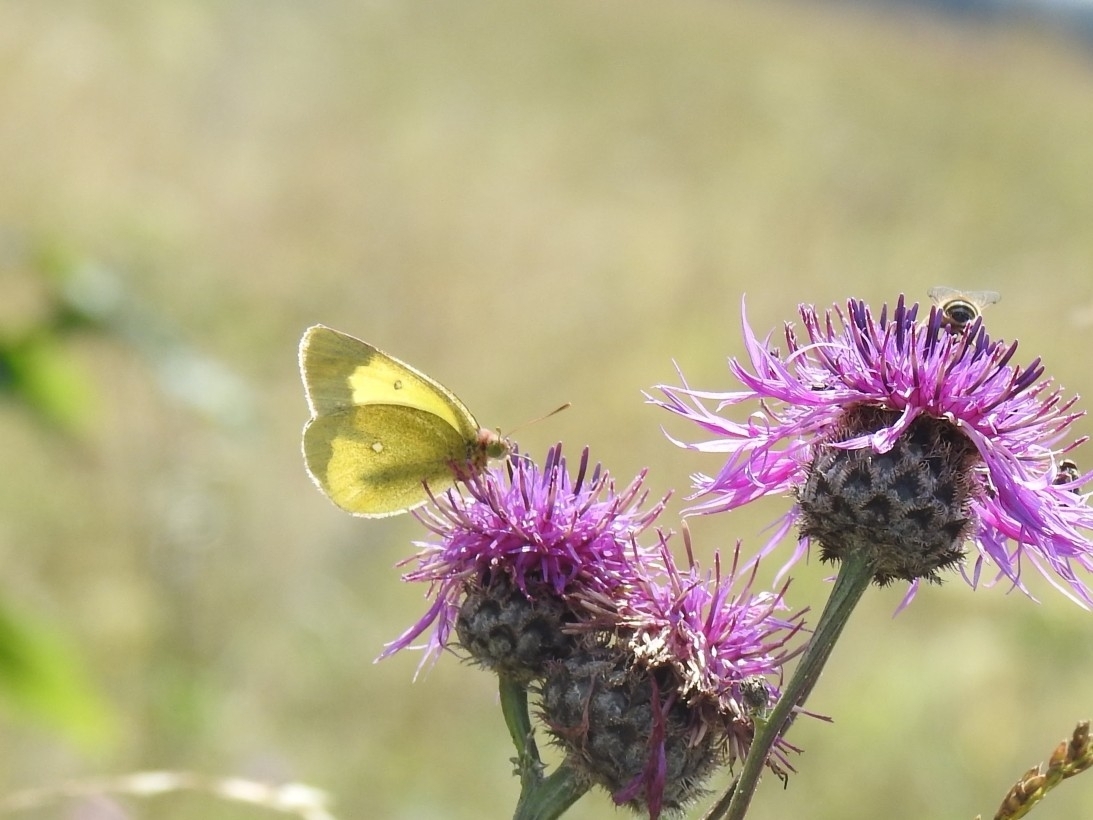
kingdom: Animalia
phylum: Arthropoda
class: Insecta
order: Lepidoptera
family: Pieridae
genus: Colias
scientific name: Colias palaeno
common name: Moorland clouded yellow
